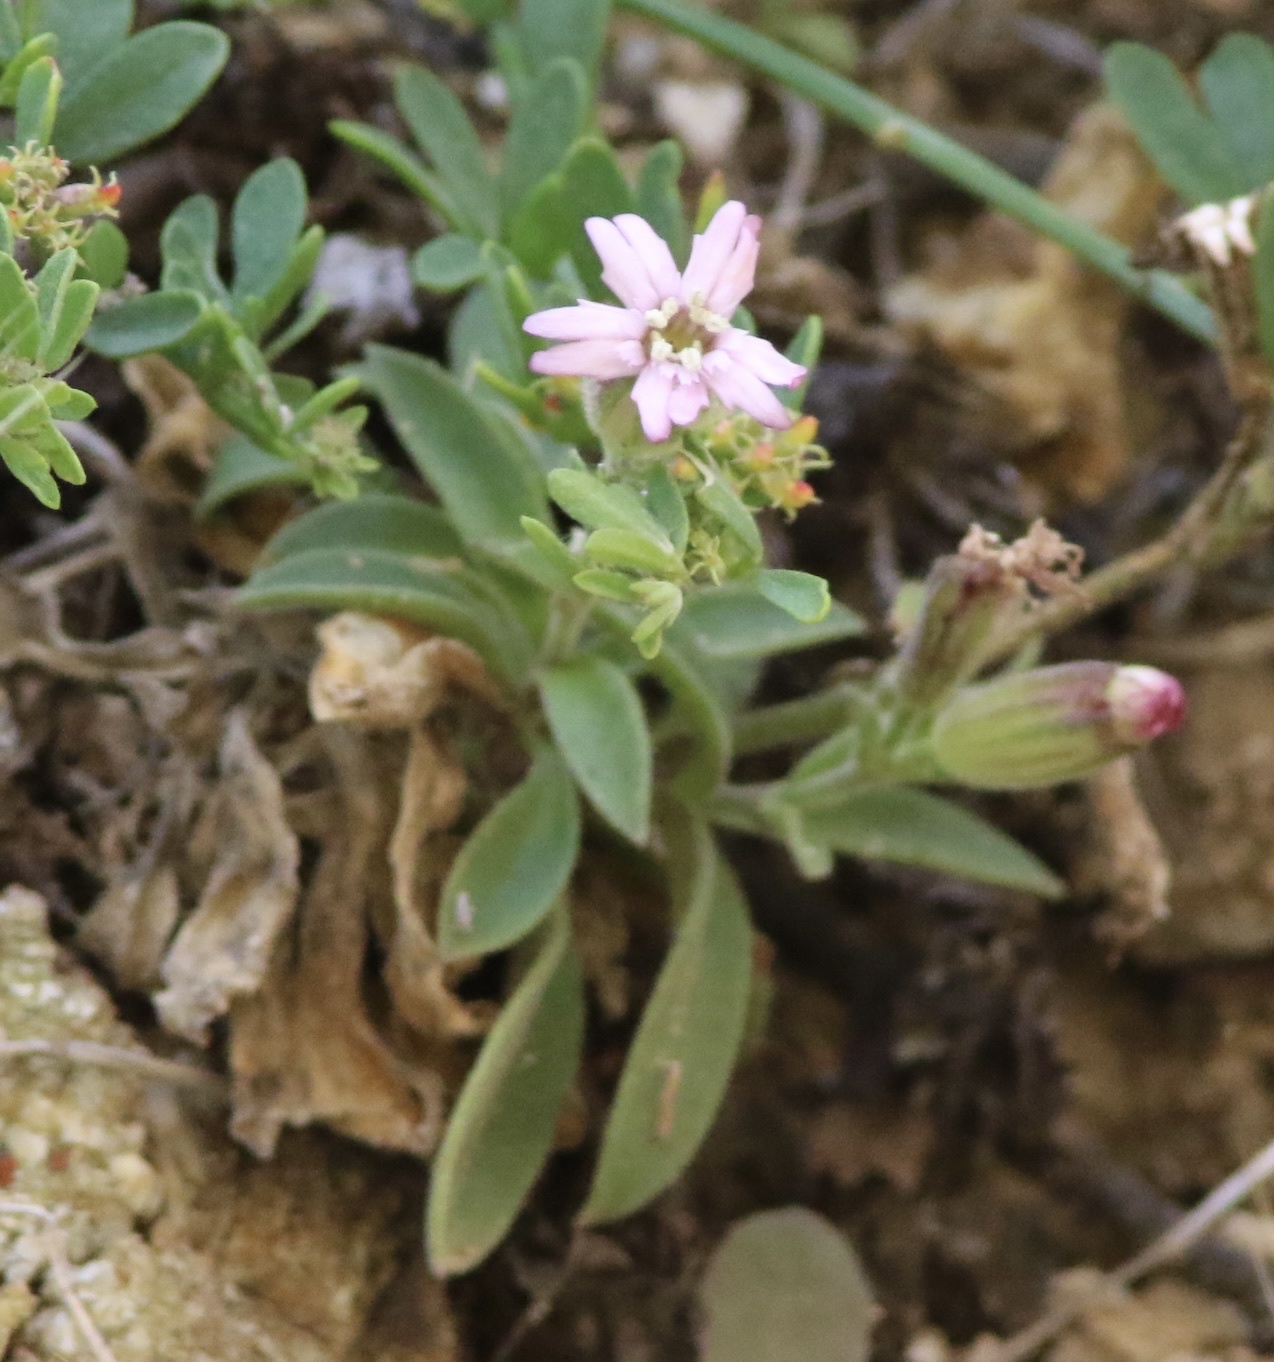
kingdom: Plantae
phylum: Tracheophyta
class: Magnoliopsida
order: Caryophyllales
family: Caryophyllaceae
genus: Silene
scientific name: Silene verecunda
